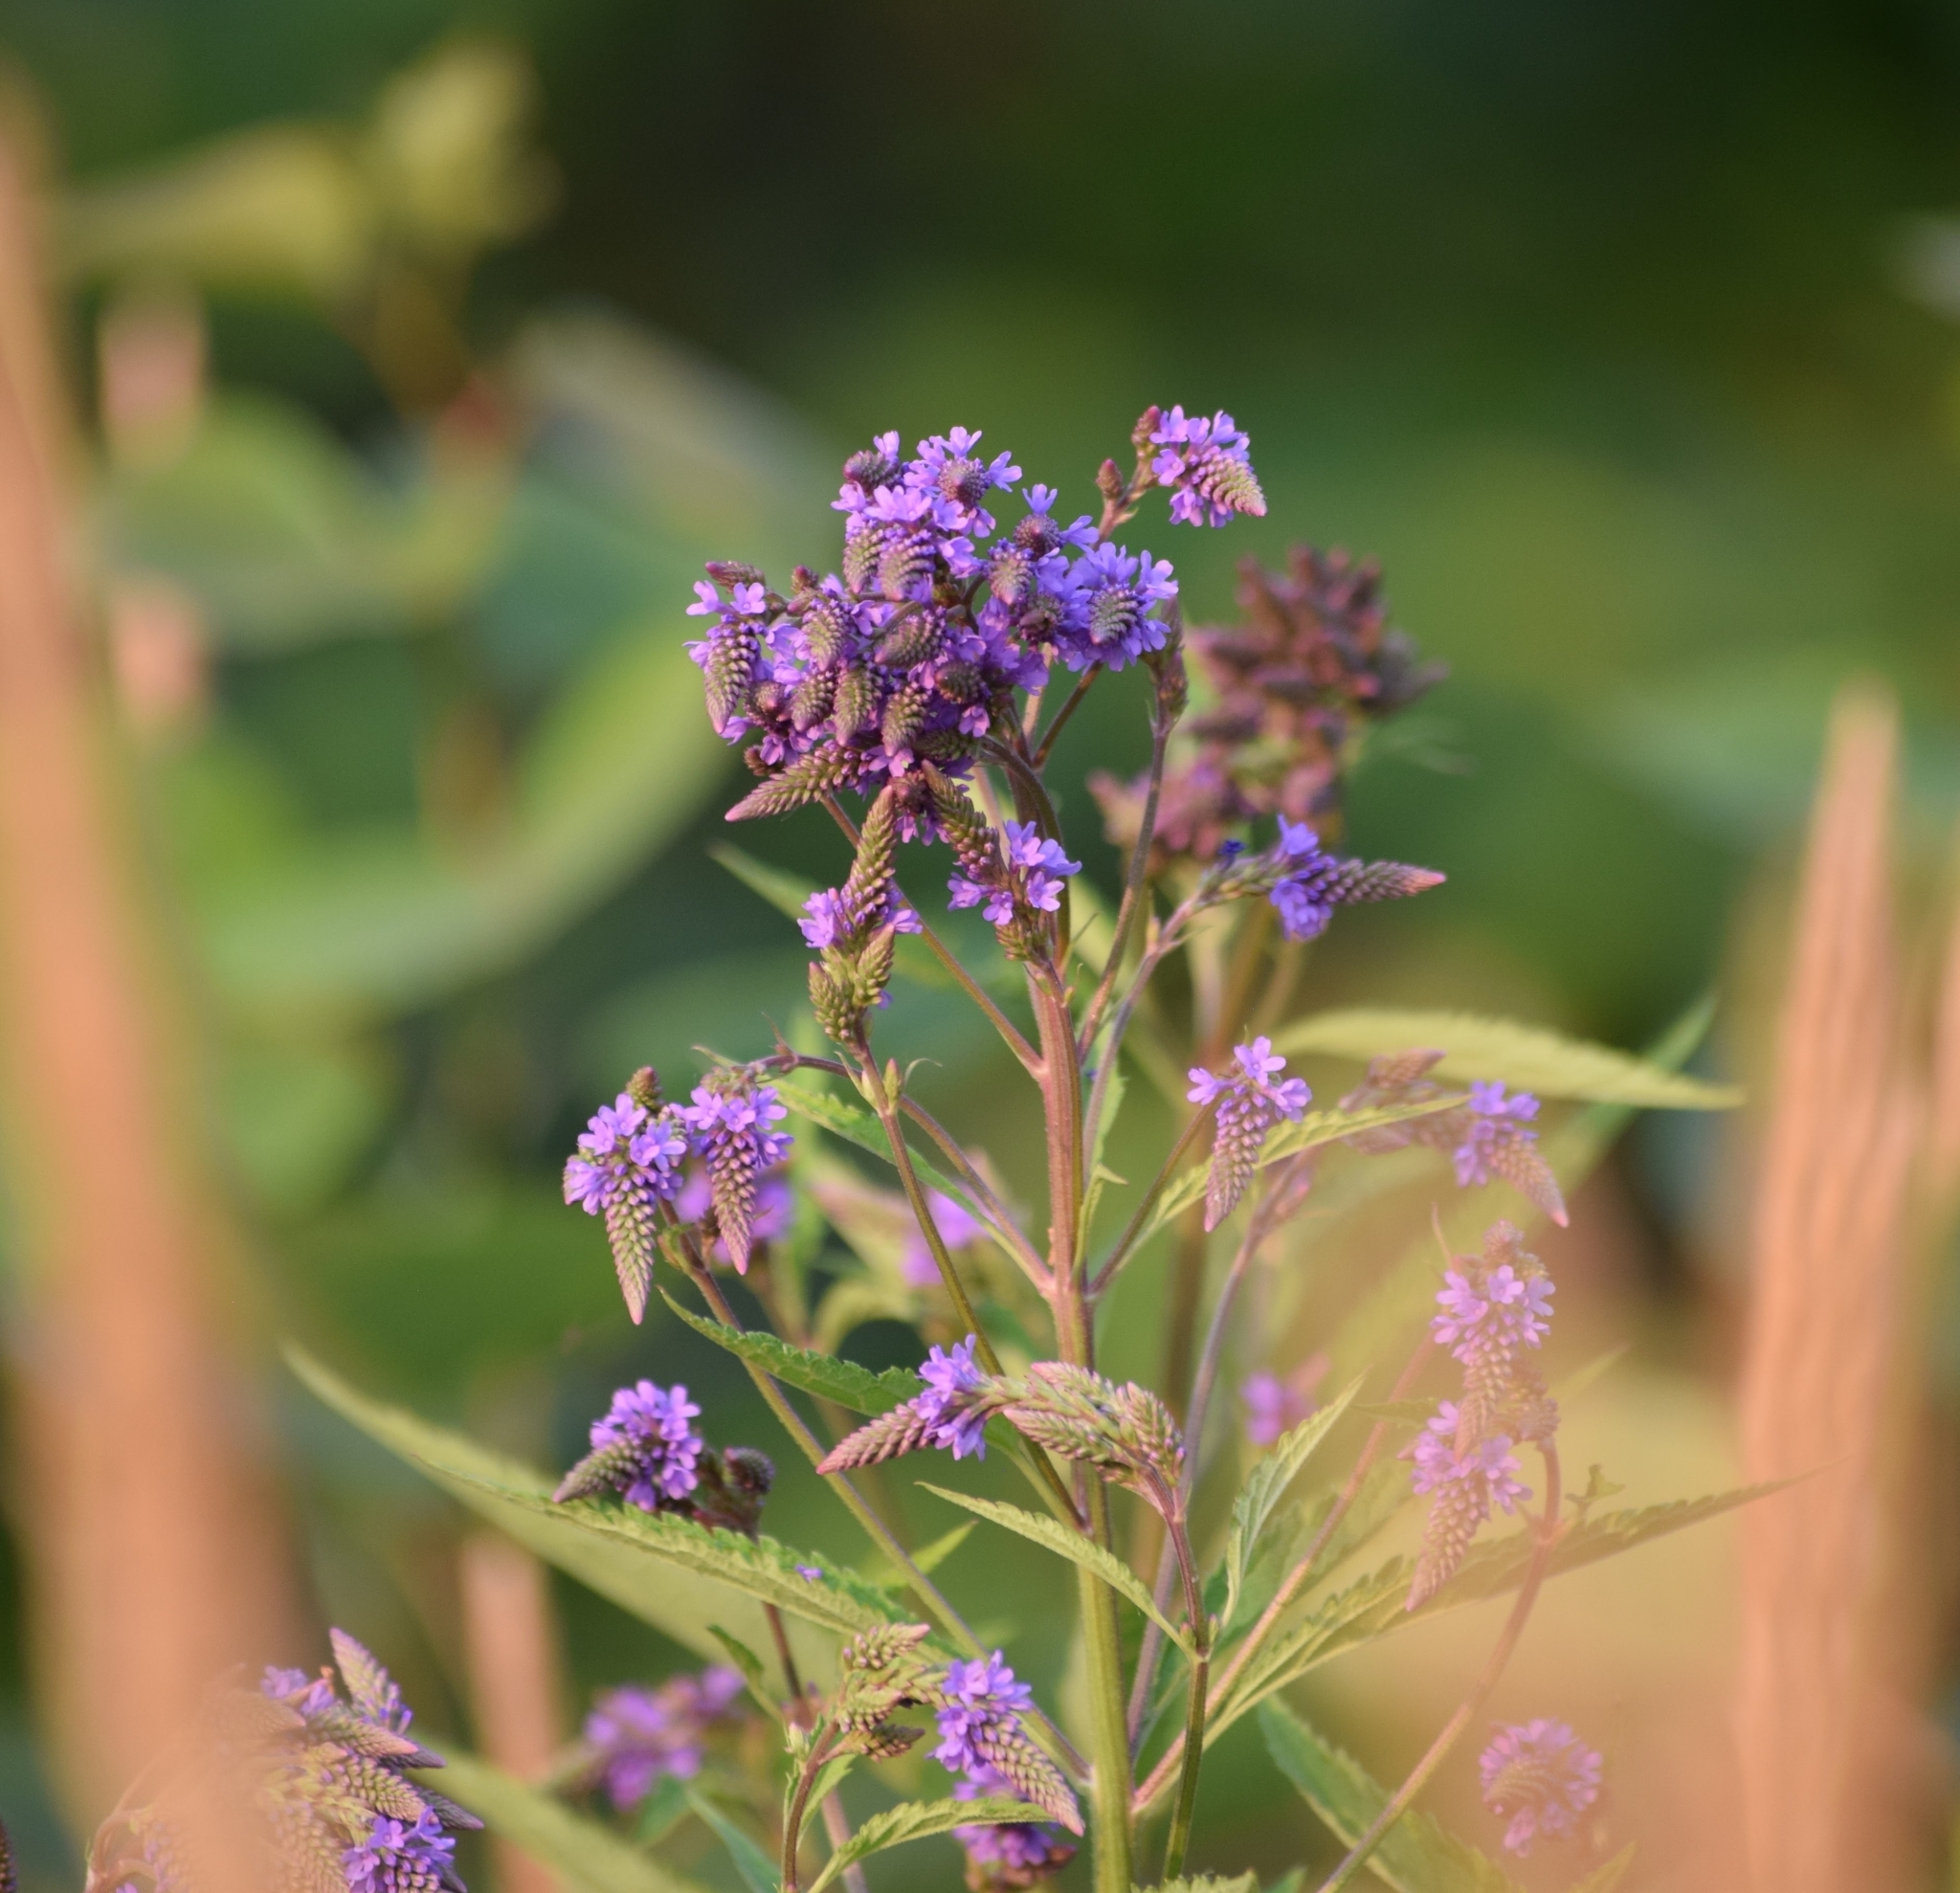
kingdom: Plantae
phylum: Tracheophyta
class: Magnoliopsida
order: Lamiales
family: Verbenaceae
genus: Verbena
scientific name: Verbena hastata
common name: American blue vervain
